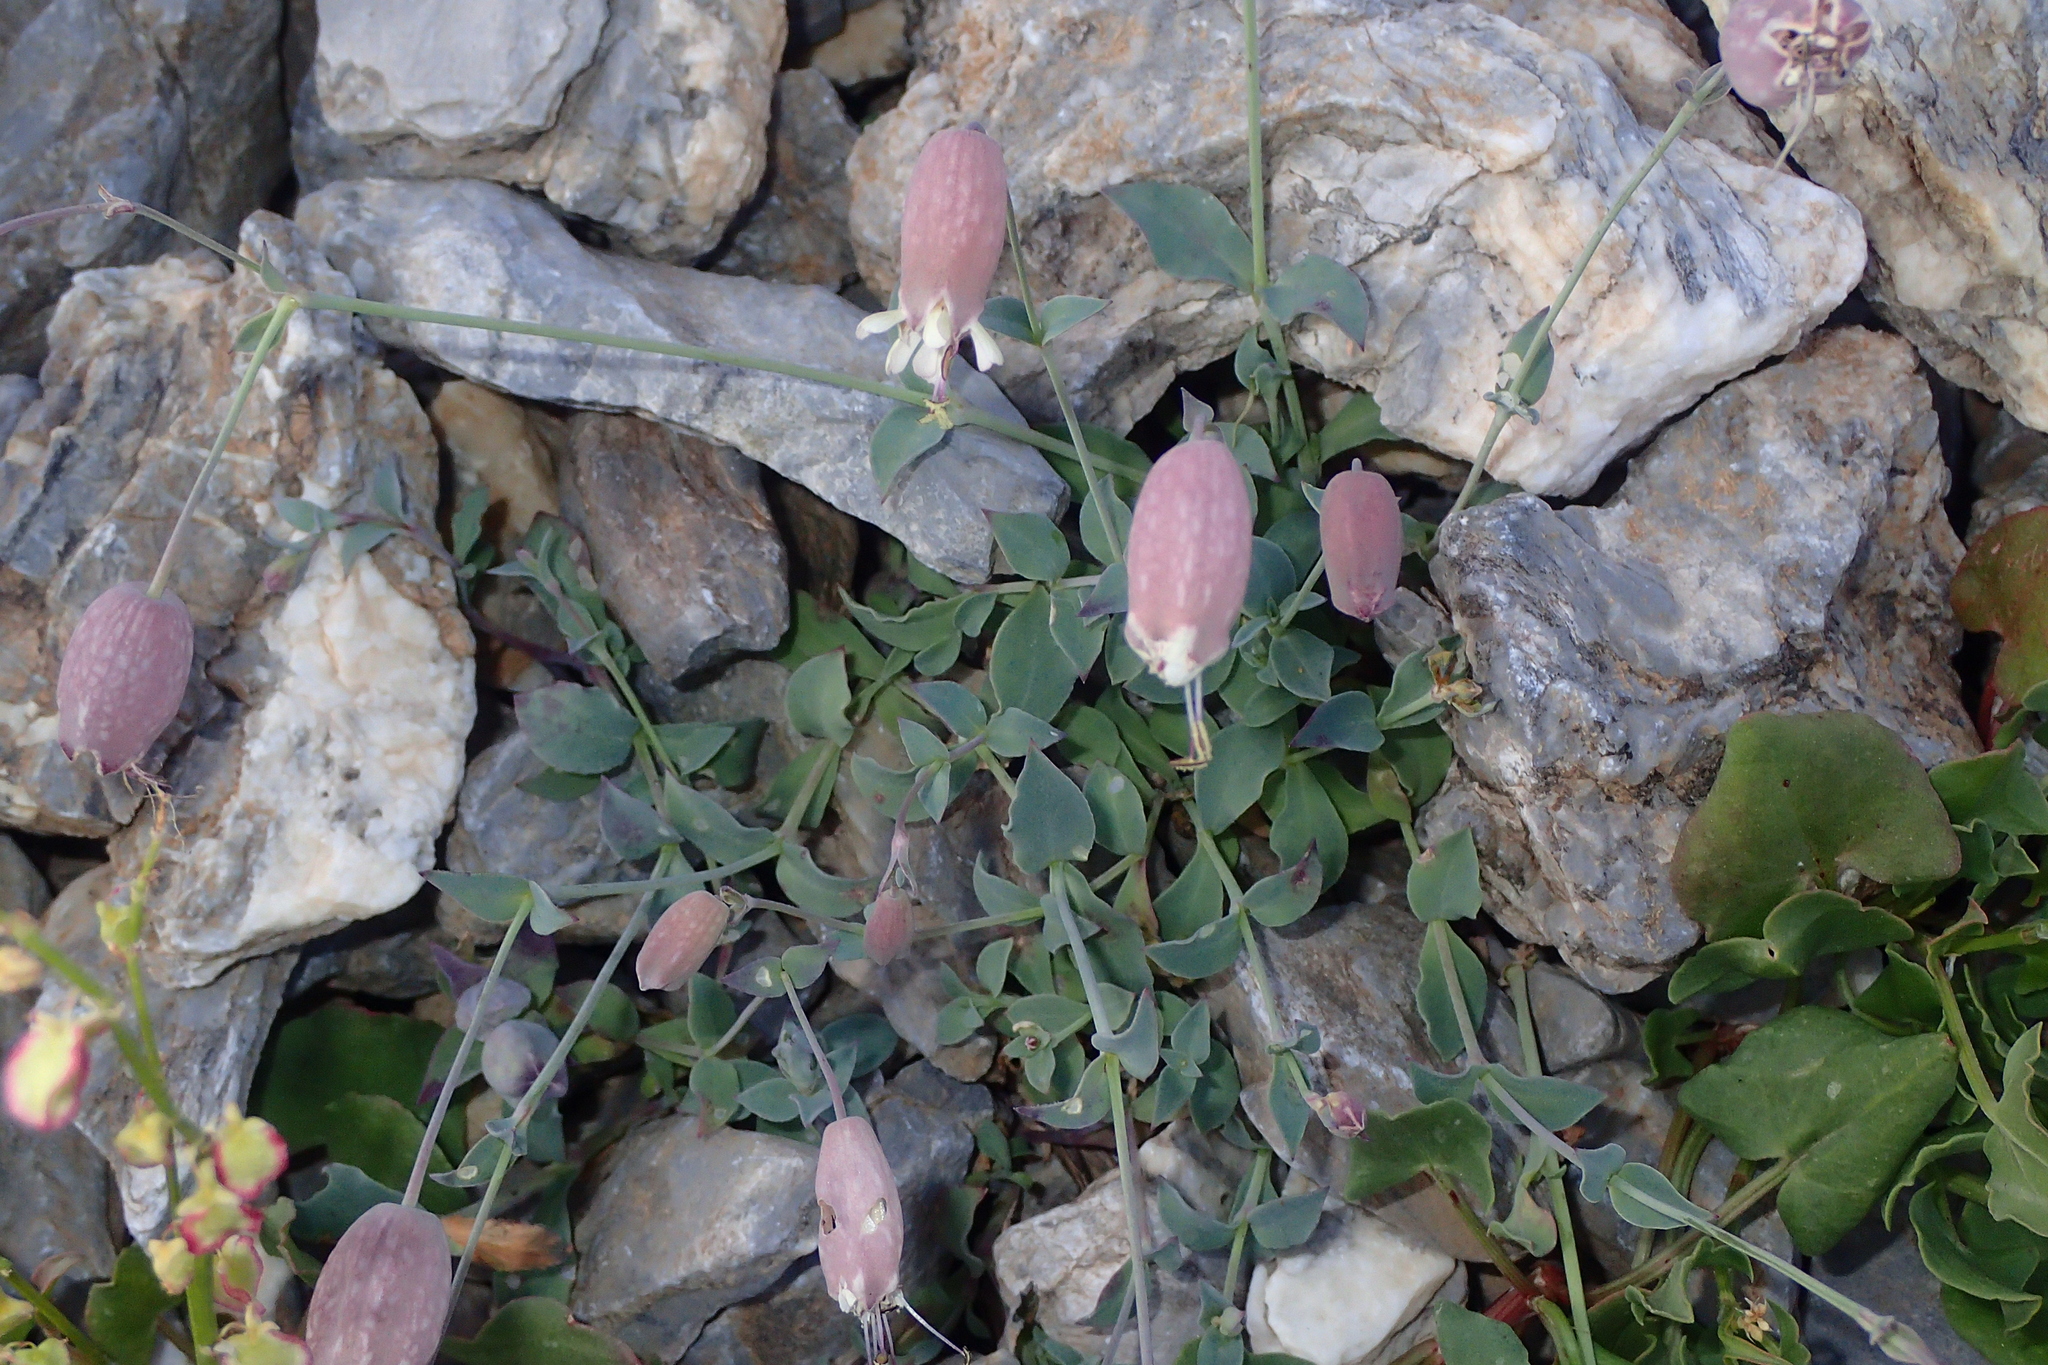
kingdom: Plantae
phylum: Tracheophyta
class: Magnoliopsida
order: Caryophyllales
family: Caryophyllaceae
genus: Silene
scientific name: Silene vulgaris
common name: Bladder campion
